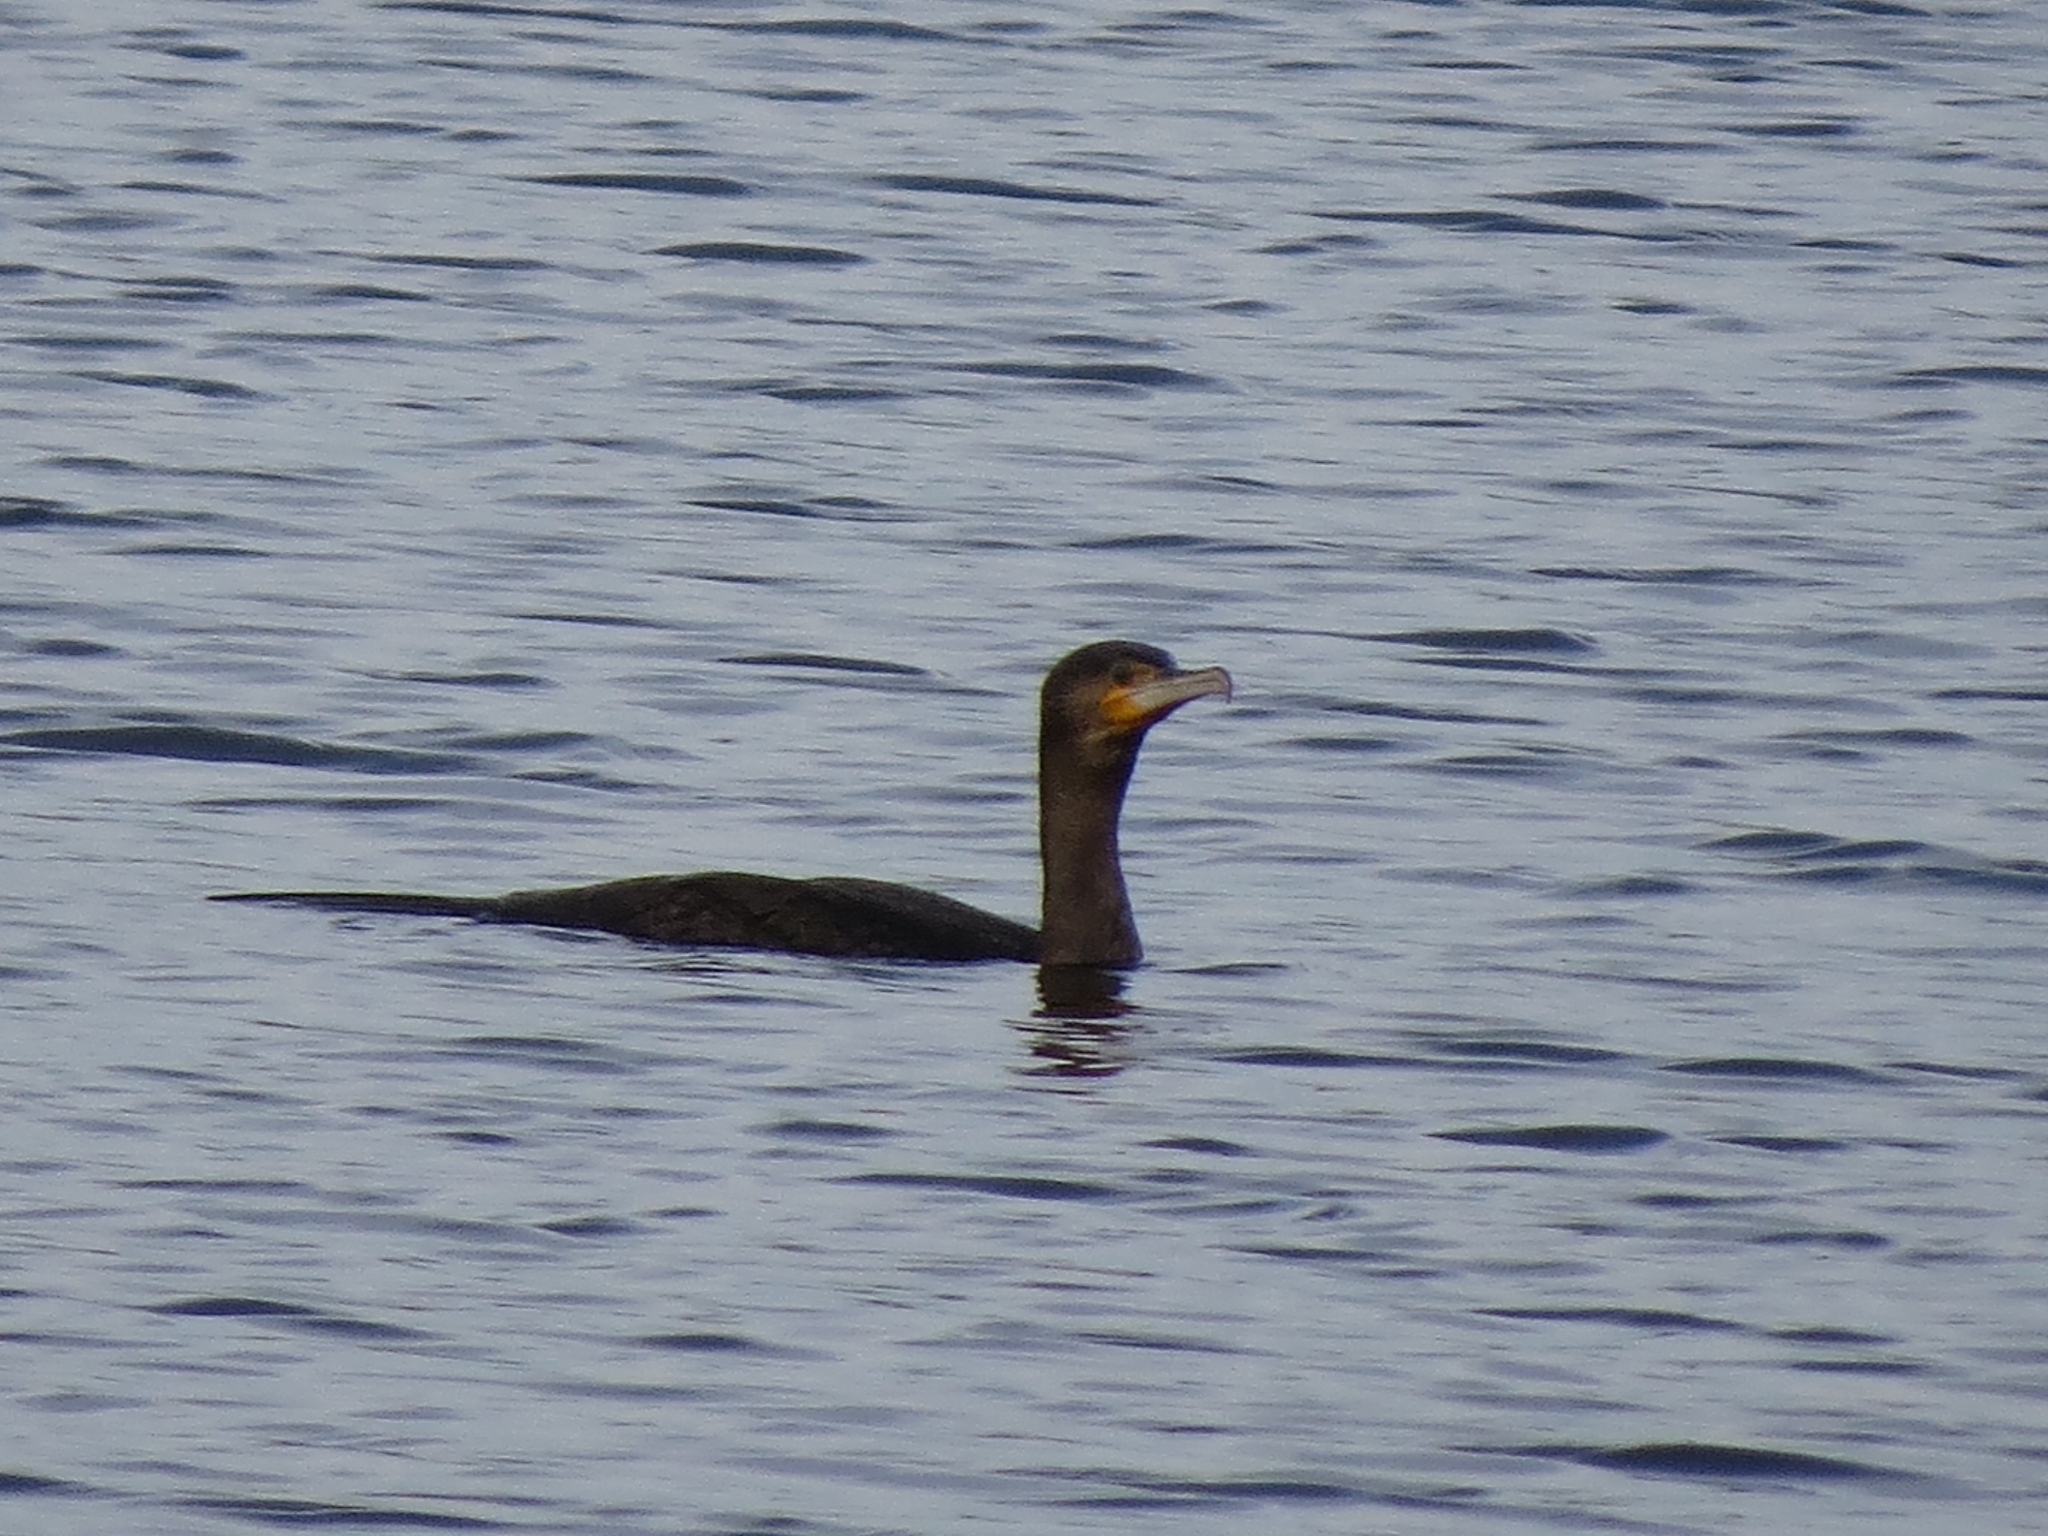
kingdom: Animalia
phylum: Chordata
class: Aves
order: Suliformes
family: Phalacrocoracidae
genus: Phalacrocorax
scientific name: Phalacrocorax carbo
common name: Great cormorant
